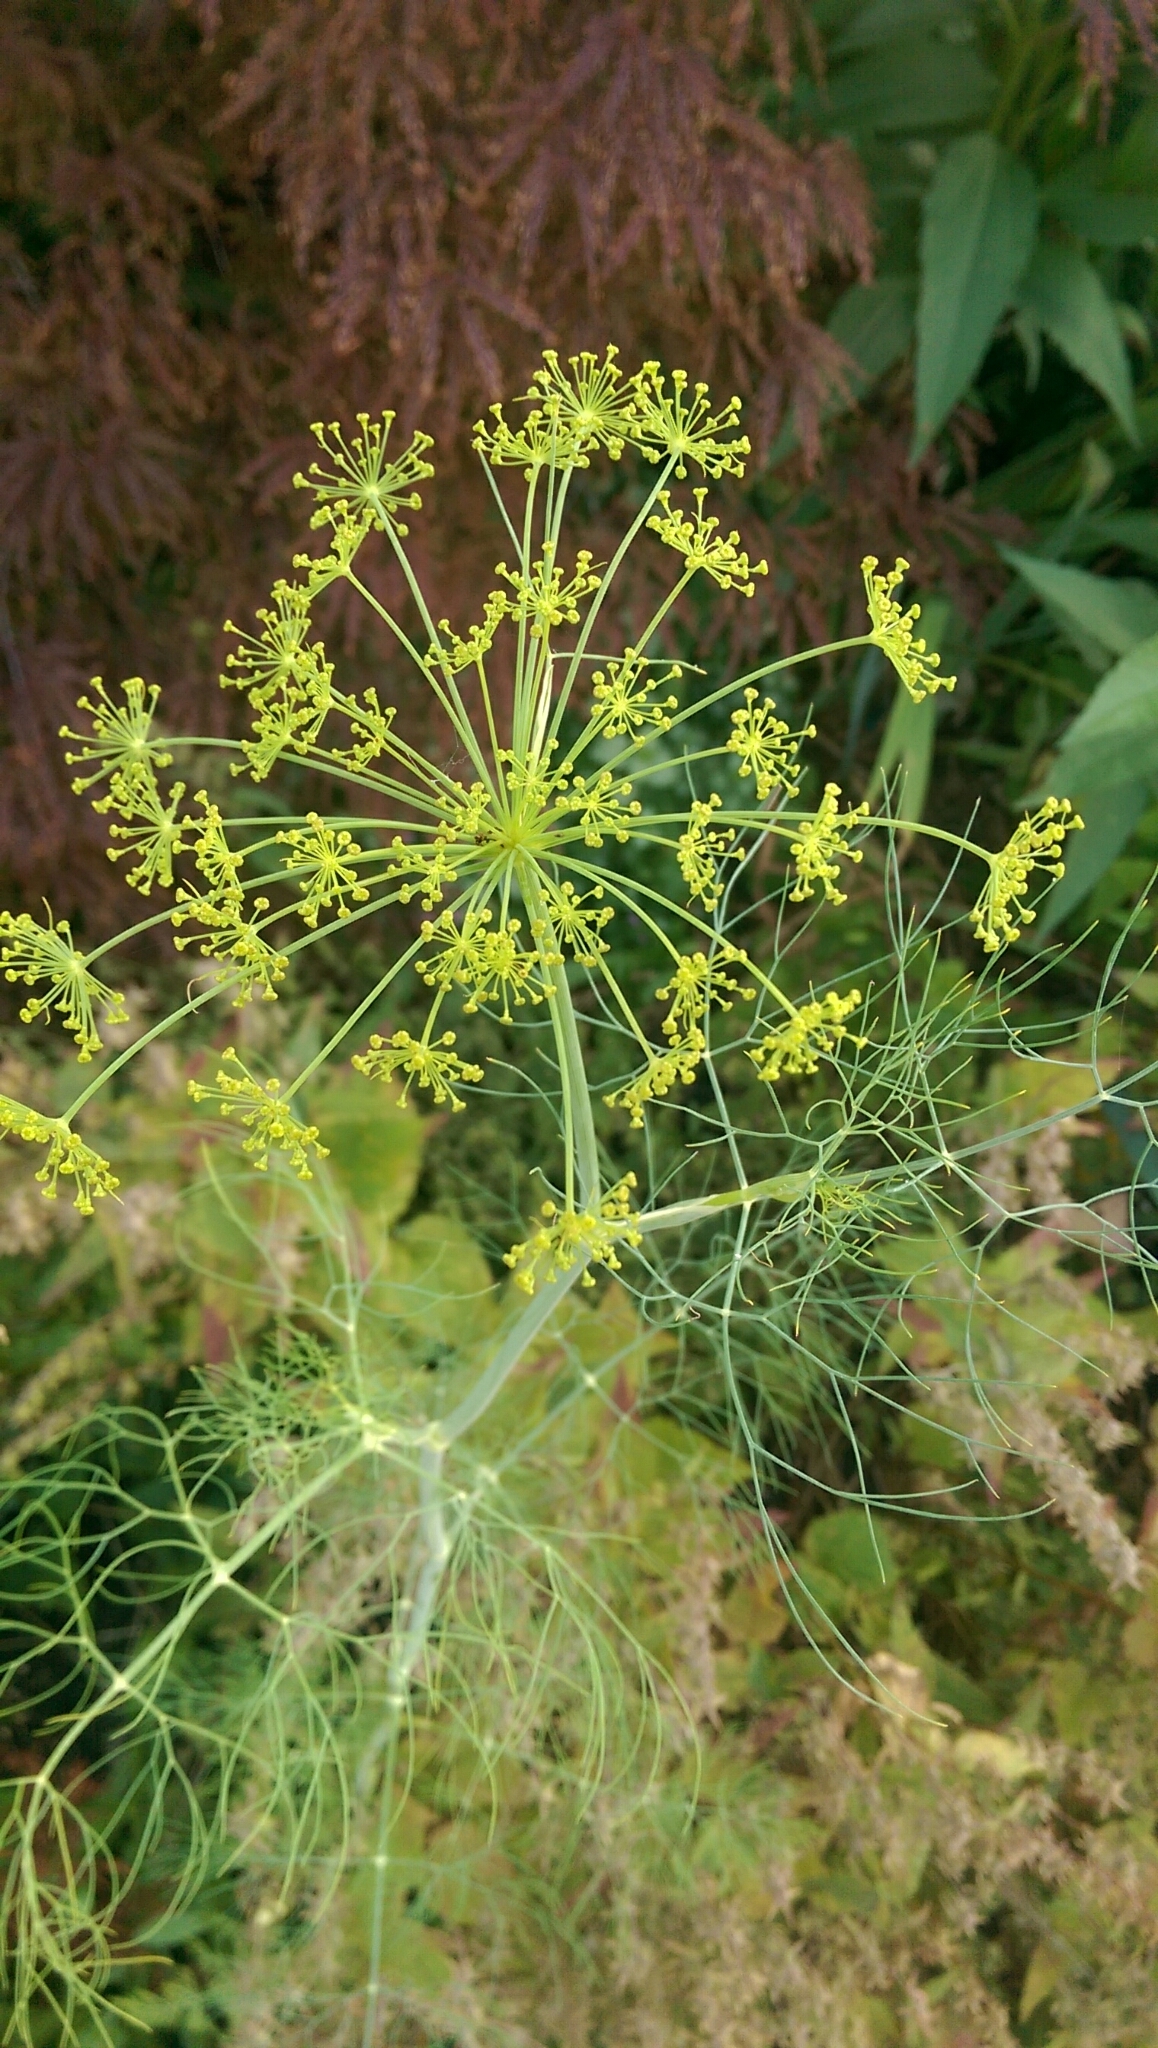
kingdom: Plantae
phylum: Tracheophyta
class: Magnoliopsida
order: Apiales
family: Apiaceae
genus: Foeniculum
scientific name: Foeniculum vulgare
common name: Fennel
